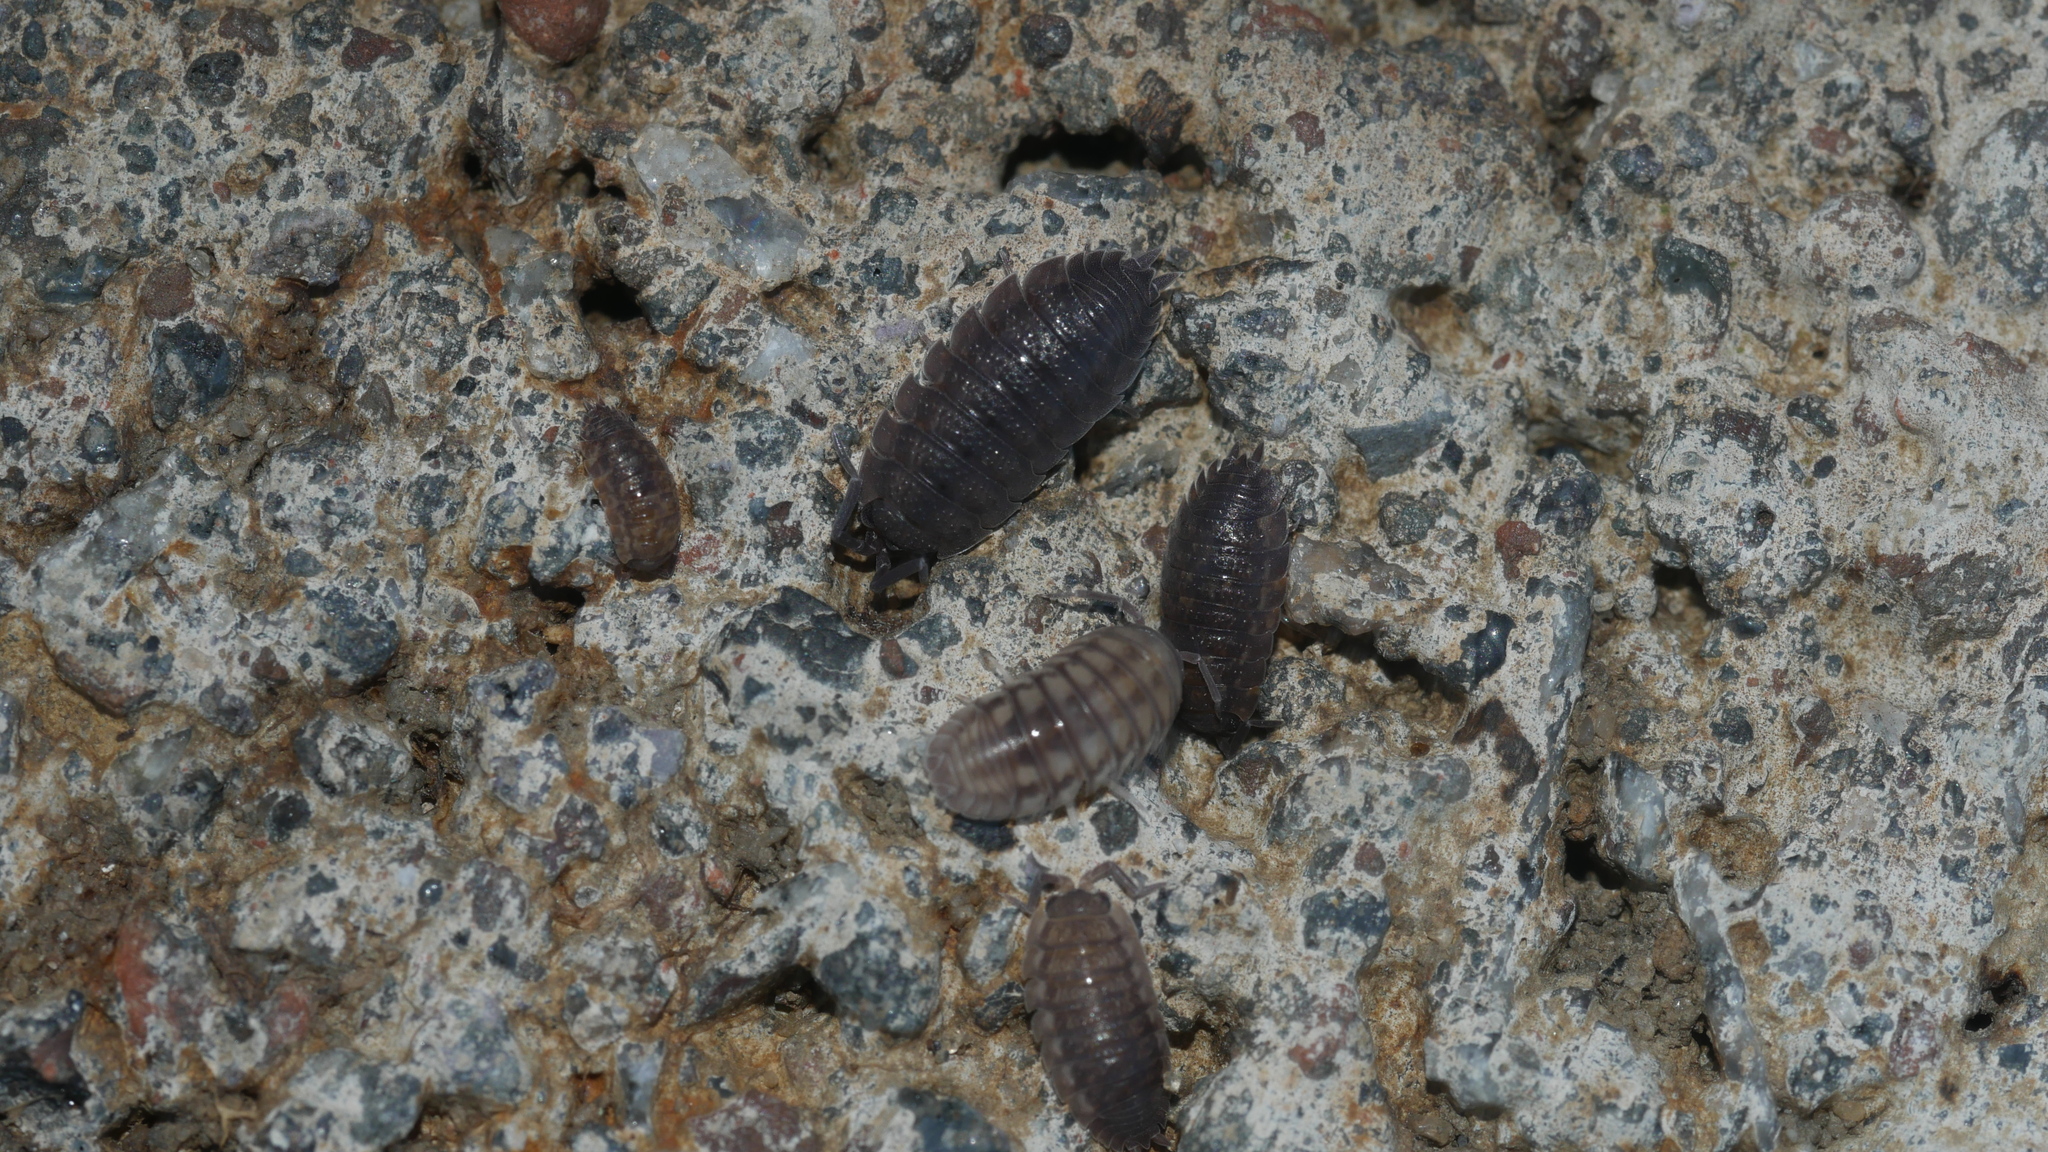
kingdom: Animalia
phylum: Arthropoda
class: Malacostraca
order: Isopoda
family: Porcellionidae
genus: Porcellio
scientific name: Porcellio scaber
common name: Common rough woodlouse
